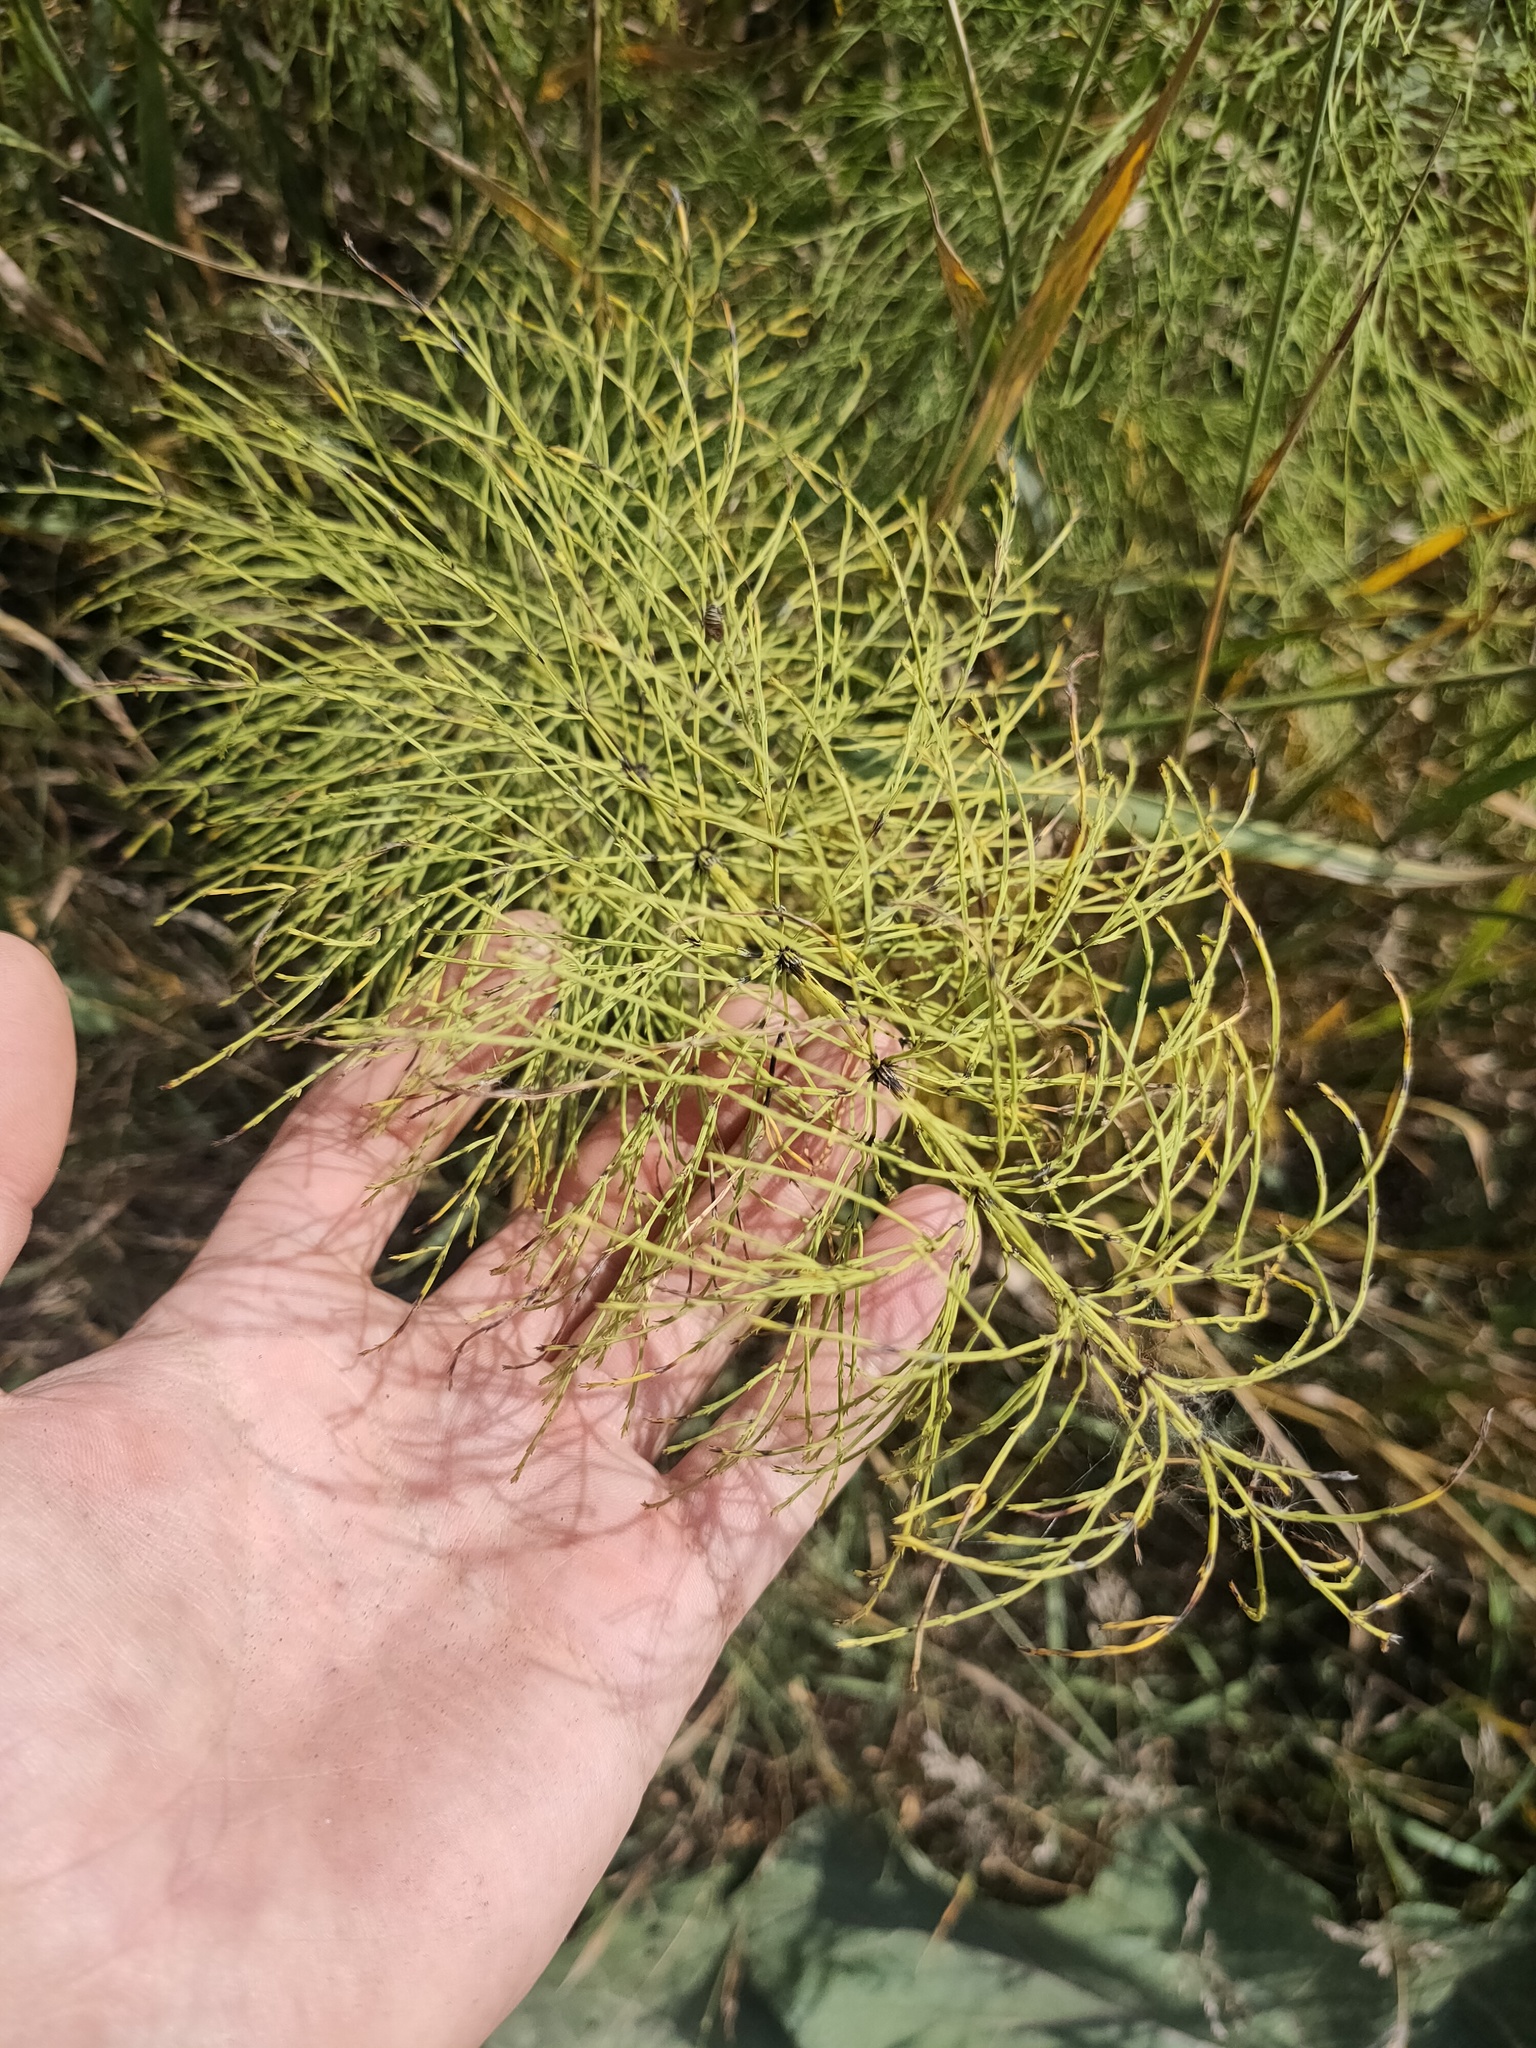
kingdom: Plantae
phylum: Tracheophyta
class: Polypodiopsida
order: Equisetales
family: Equisetaceae
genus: Equisetum
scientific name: Equisetum sylvaticum
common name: Wood horsetail
